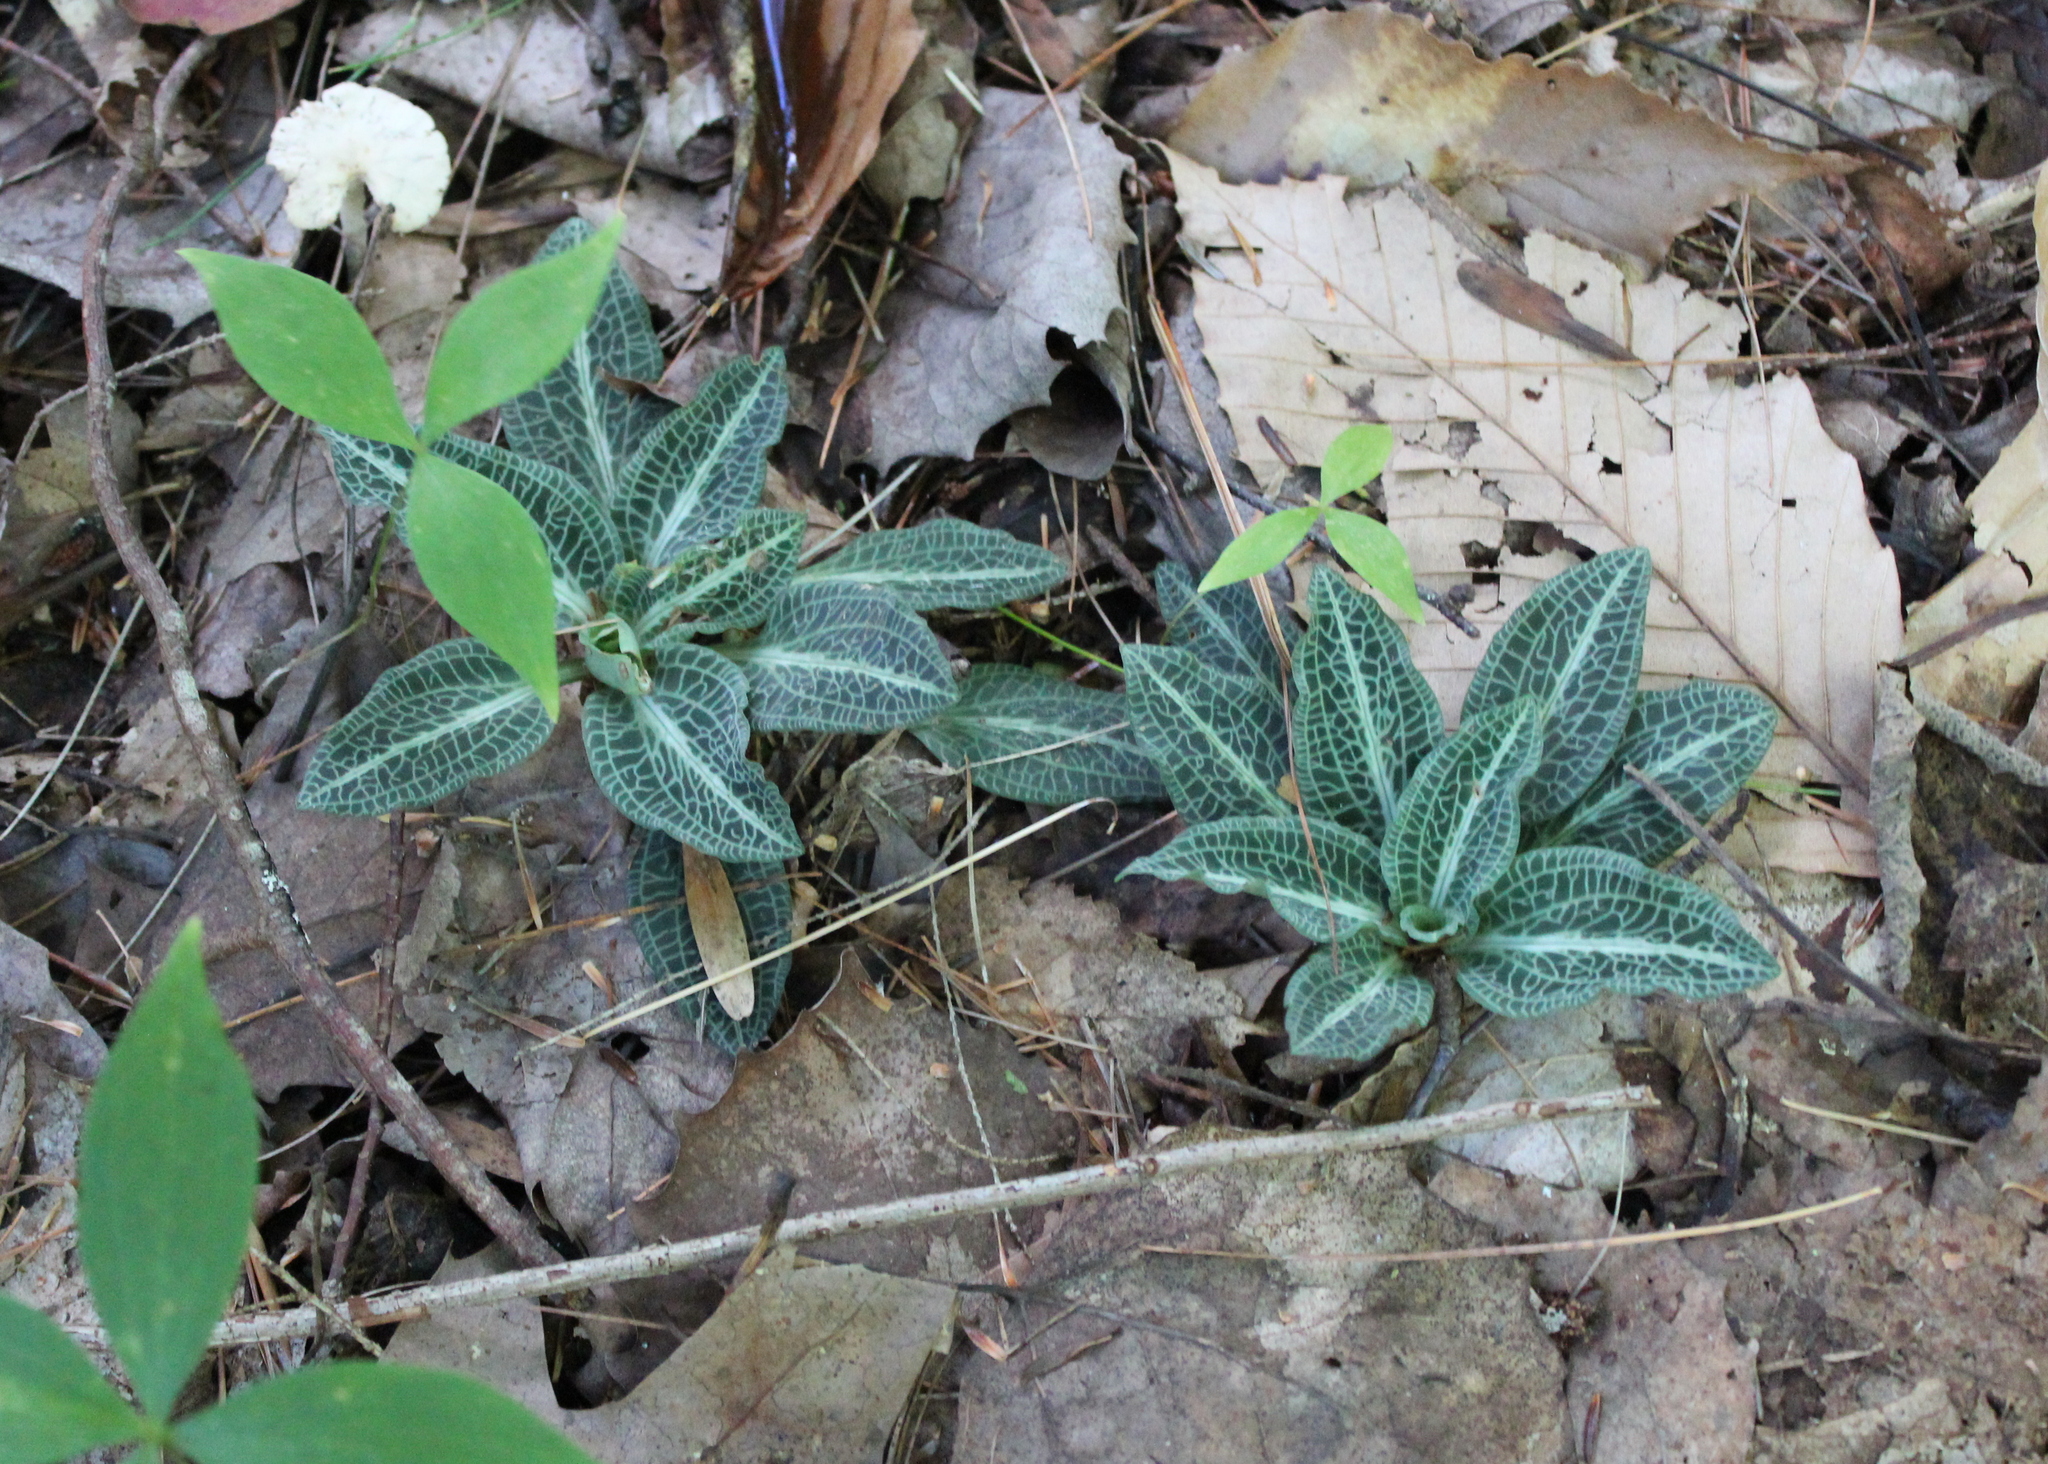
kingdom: Plantae
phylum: Tracheophyta
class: Liliopsida
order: Asparagales
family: Orchidaceae
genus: Goodyera
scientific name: Goodyera pubescens
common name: Downy rattlesnake-plantain
